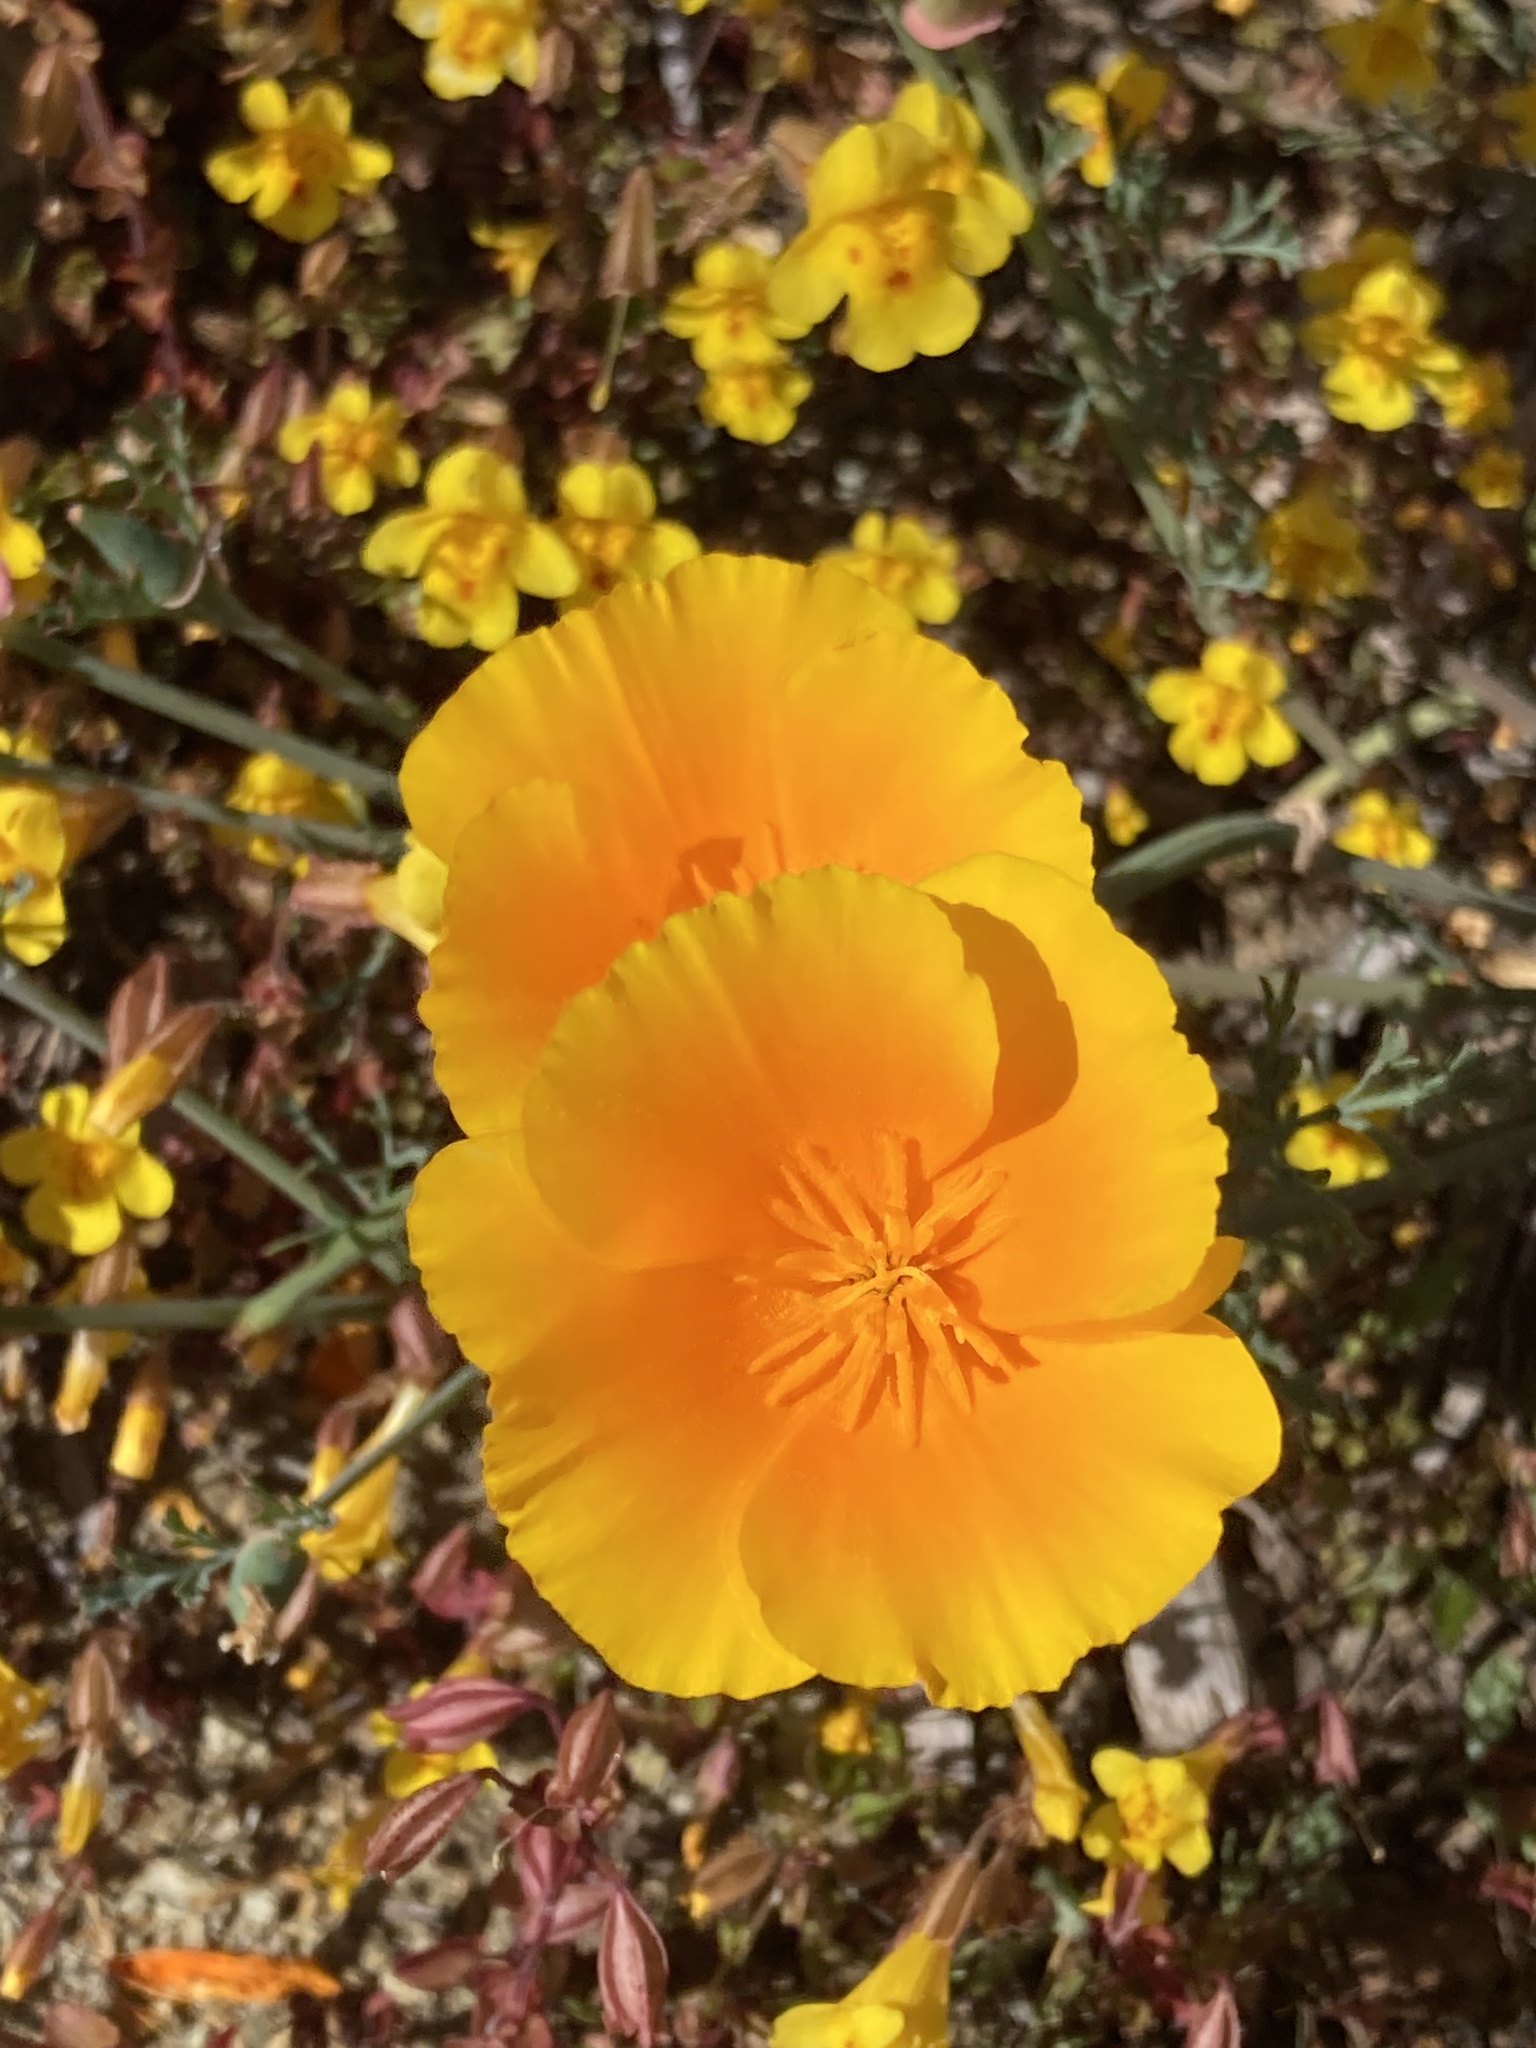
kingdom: Plantae
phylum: Tracheophyta
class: Magnoliopsida
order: Ranunculales
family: Papaveraceae
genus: Eschscholzia
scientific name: Eschscholzia californica
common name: California poppy
